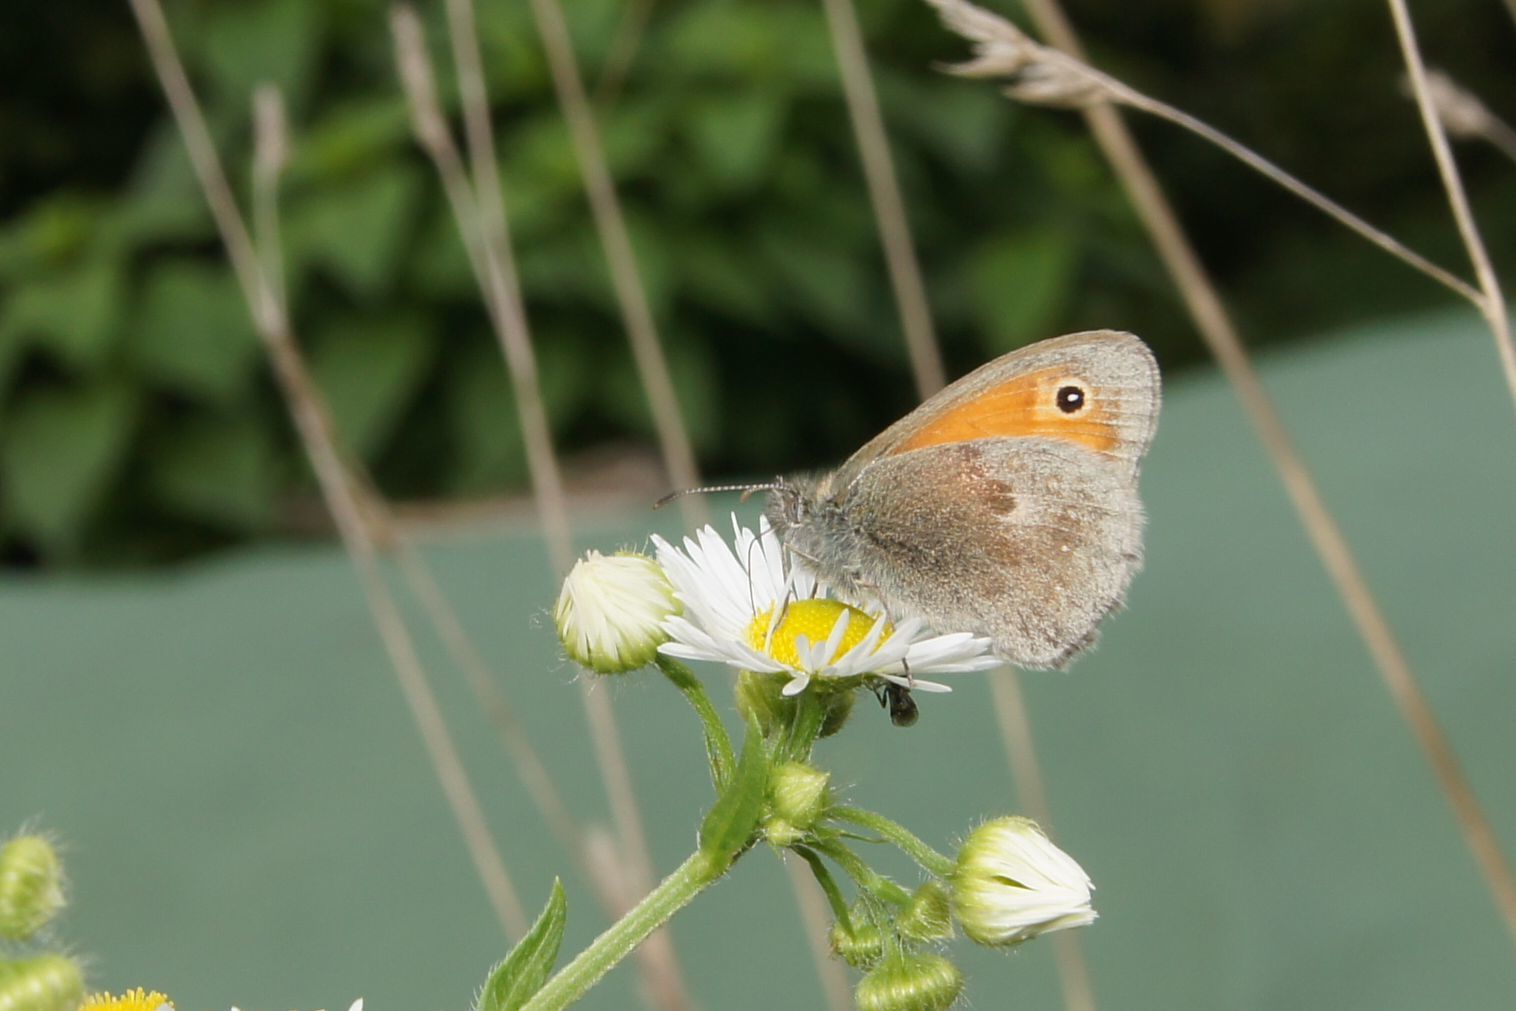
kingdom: Animalia
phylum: Arthropoda
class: Insecta
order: Lepidoptera
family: Nymphalidae
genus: Coenonympha
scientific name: Coenonympha pamphilus
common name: Small heath
